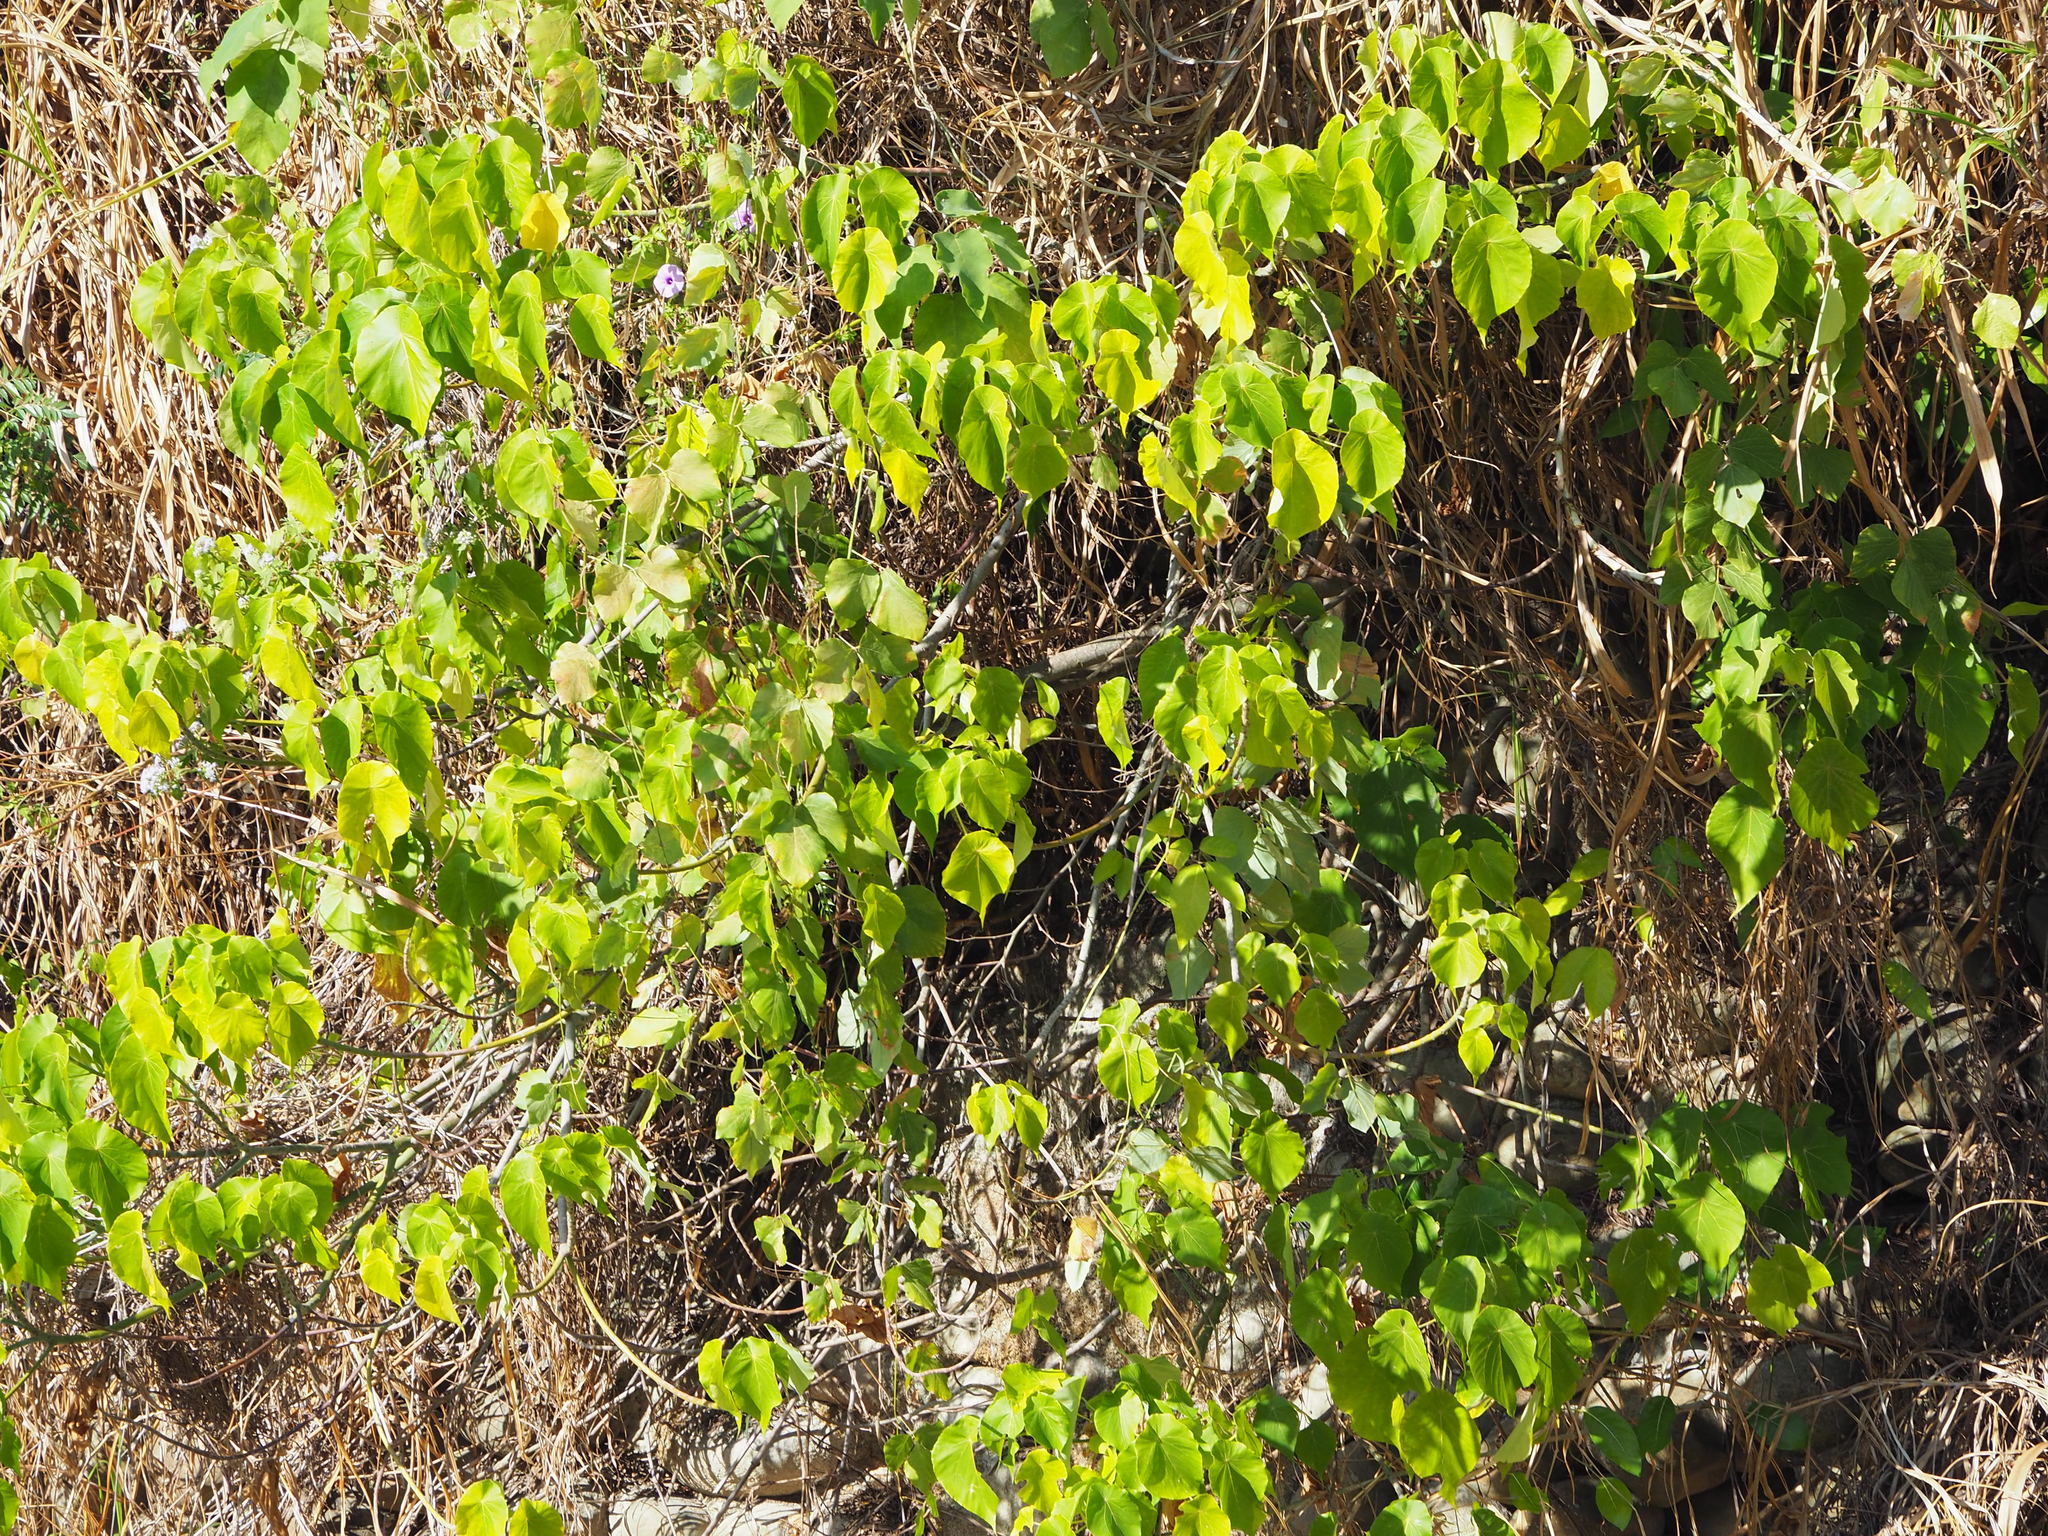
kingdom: Plantae
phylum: Tracheophyta
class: Magnoliopsida
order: Malpighiales
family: Euphorbiaceae
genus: Macaranga
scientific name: Macaranga tanarius
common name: Parasol leaf tree
